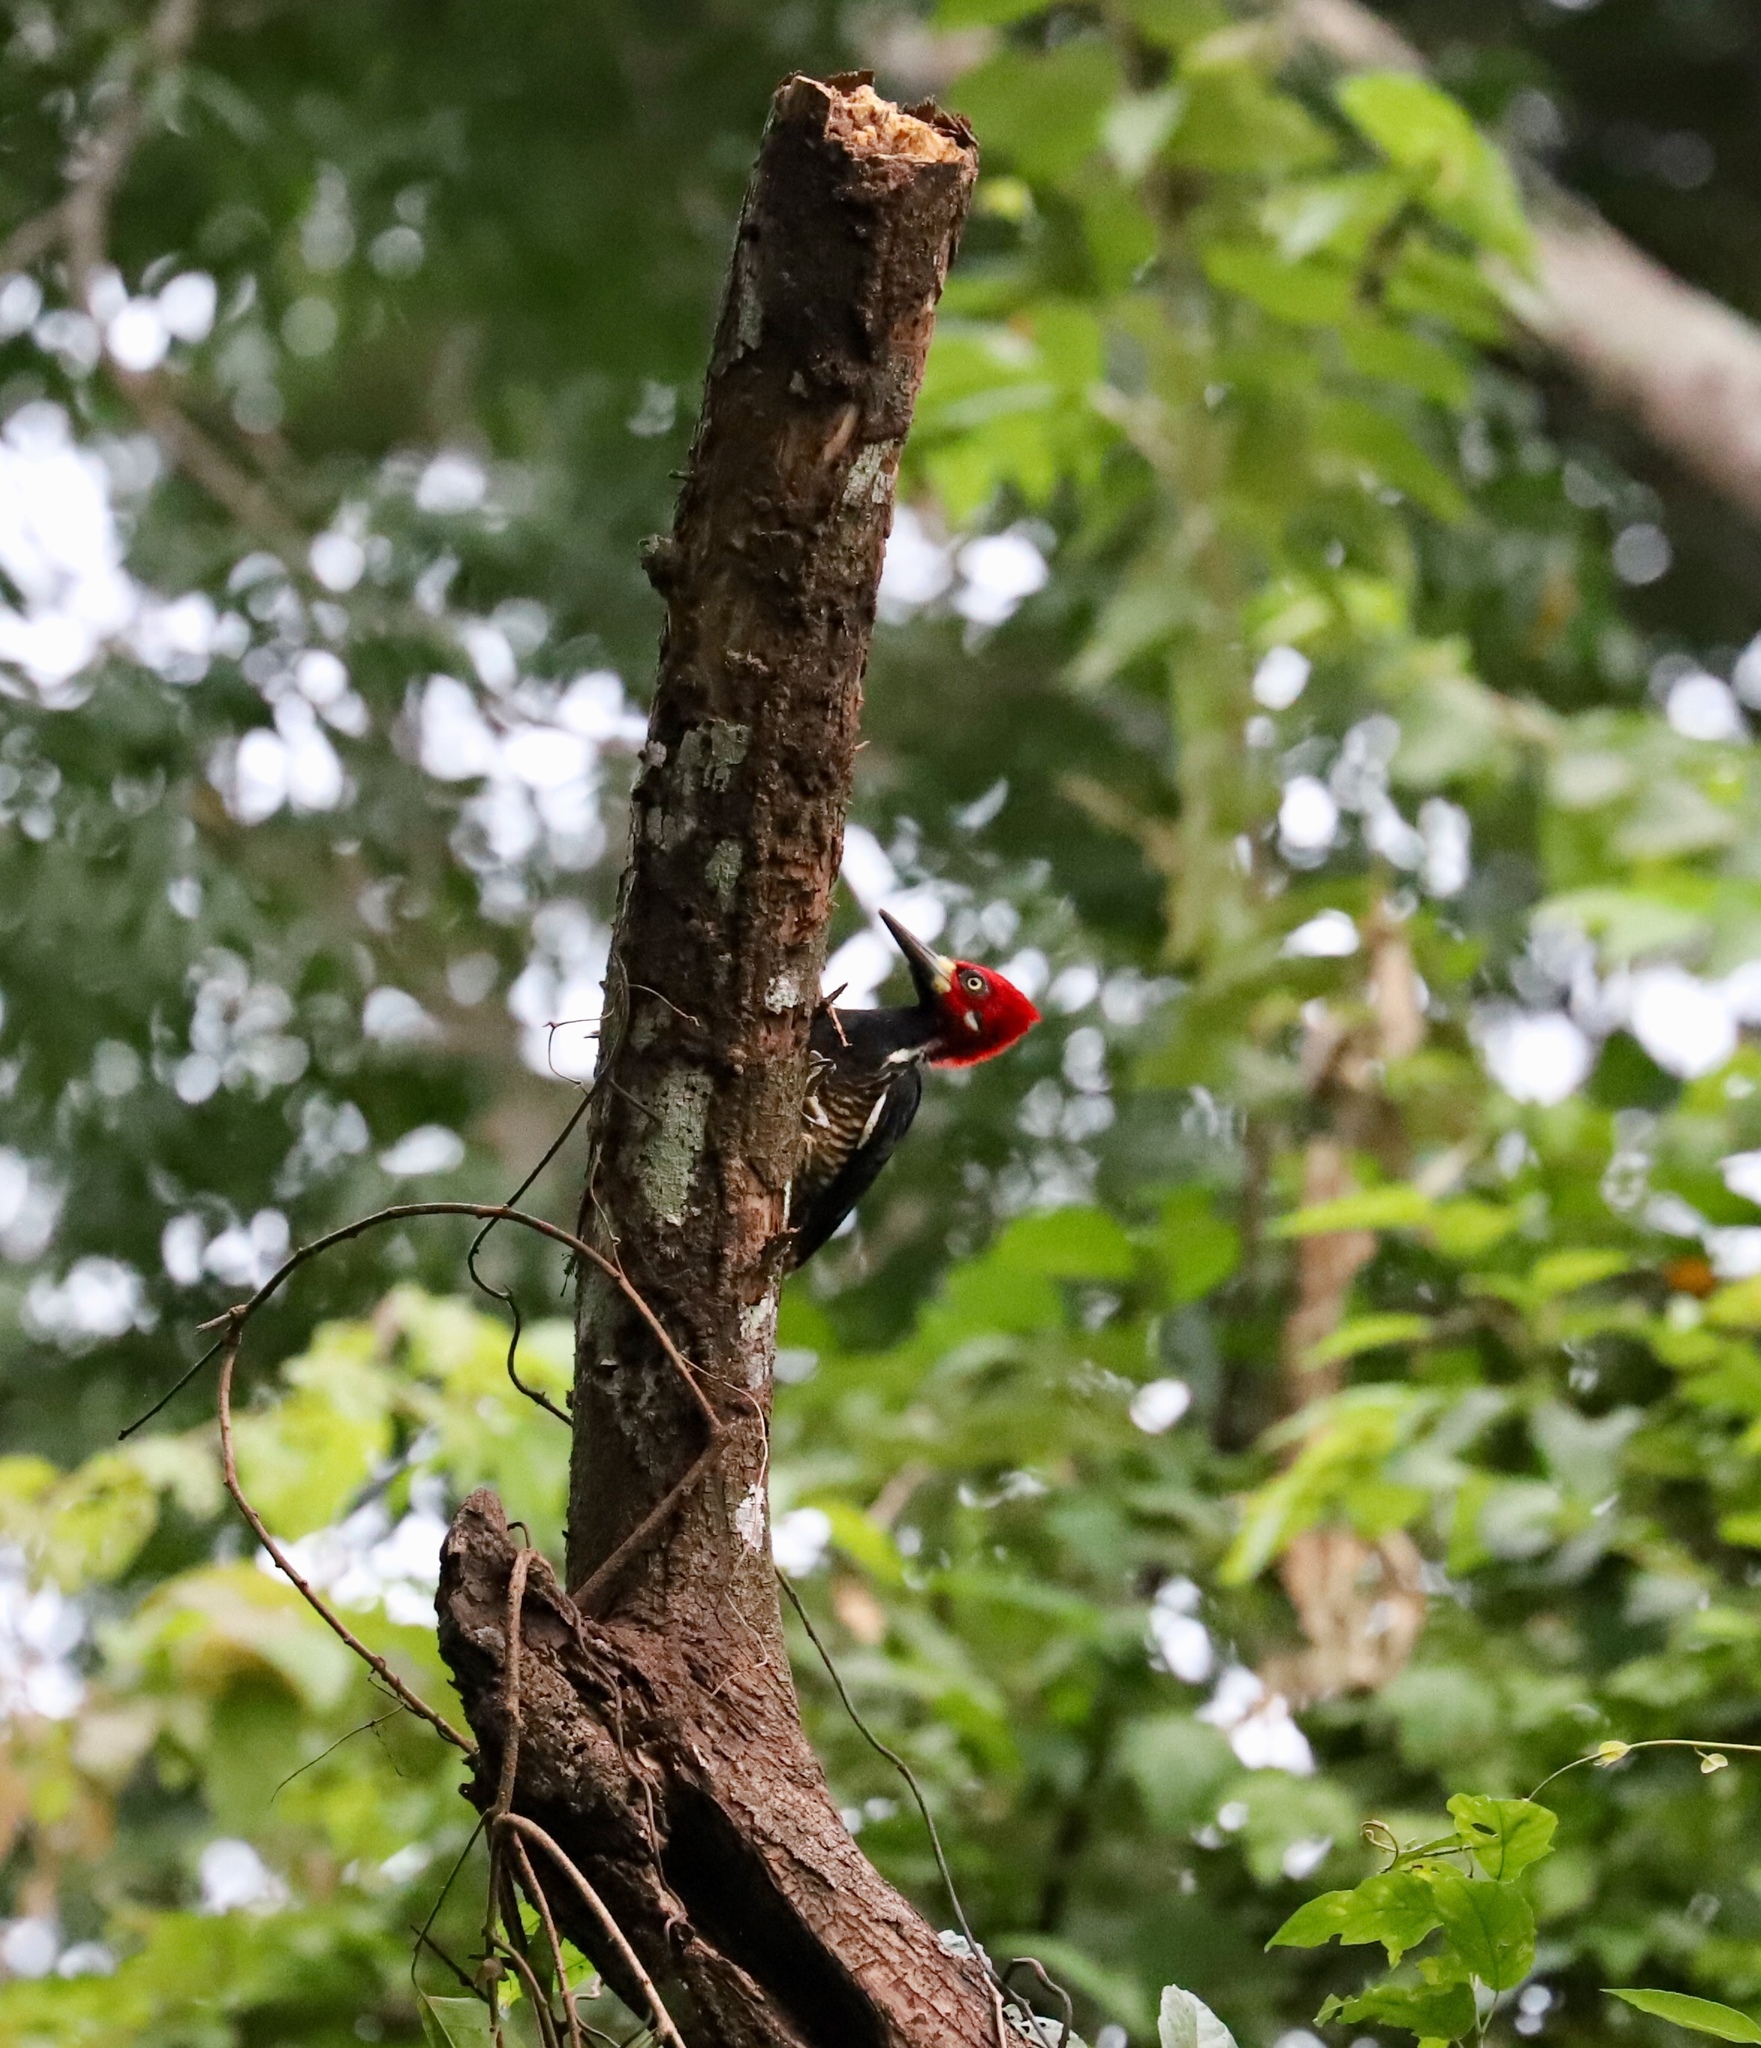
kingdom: Animalia
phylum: Chordata
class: Aves
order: Piciformes
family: Picidae
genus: Campephilus
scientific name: Campephilus melanoleucos
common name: Crimson-crested woodpecker
